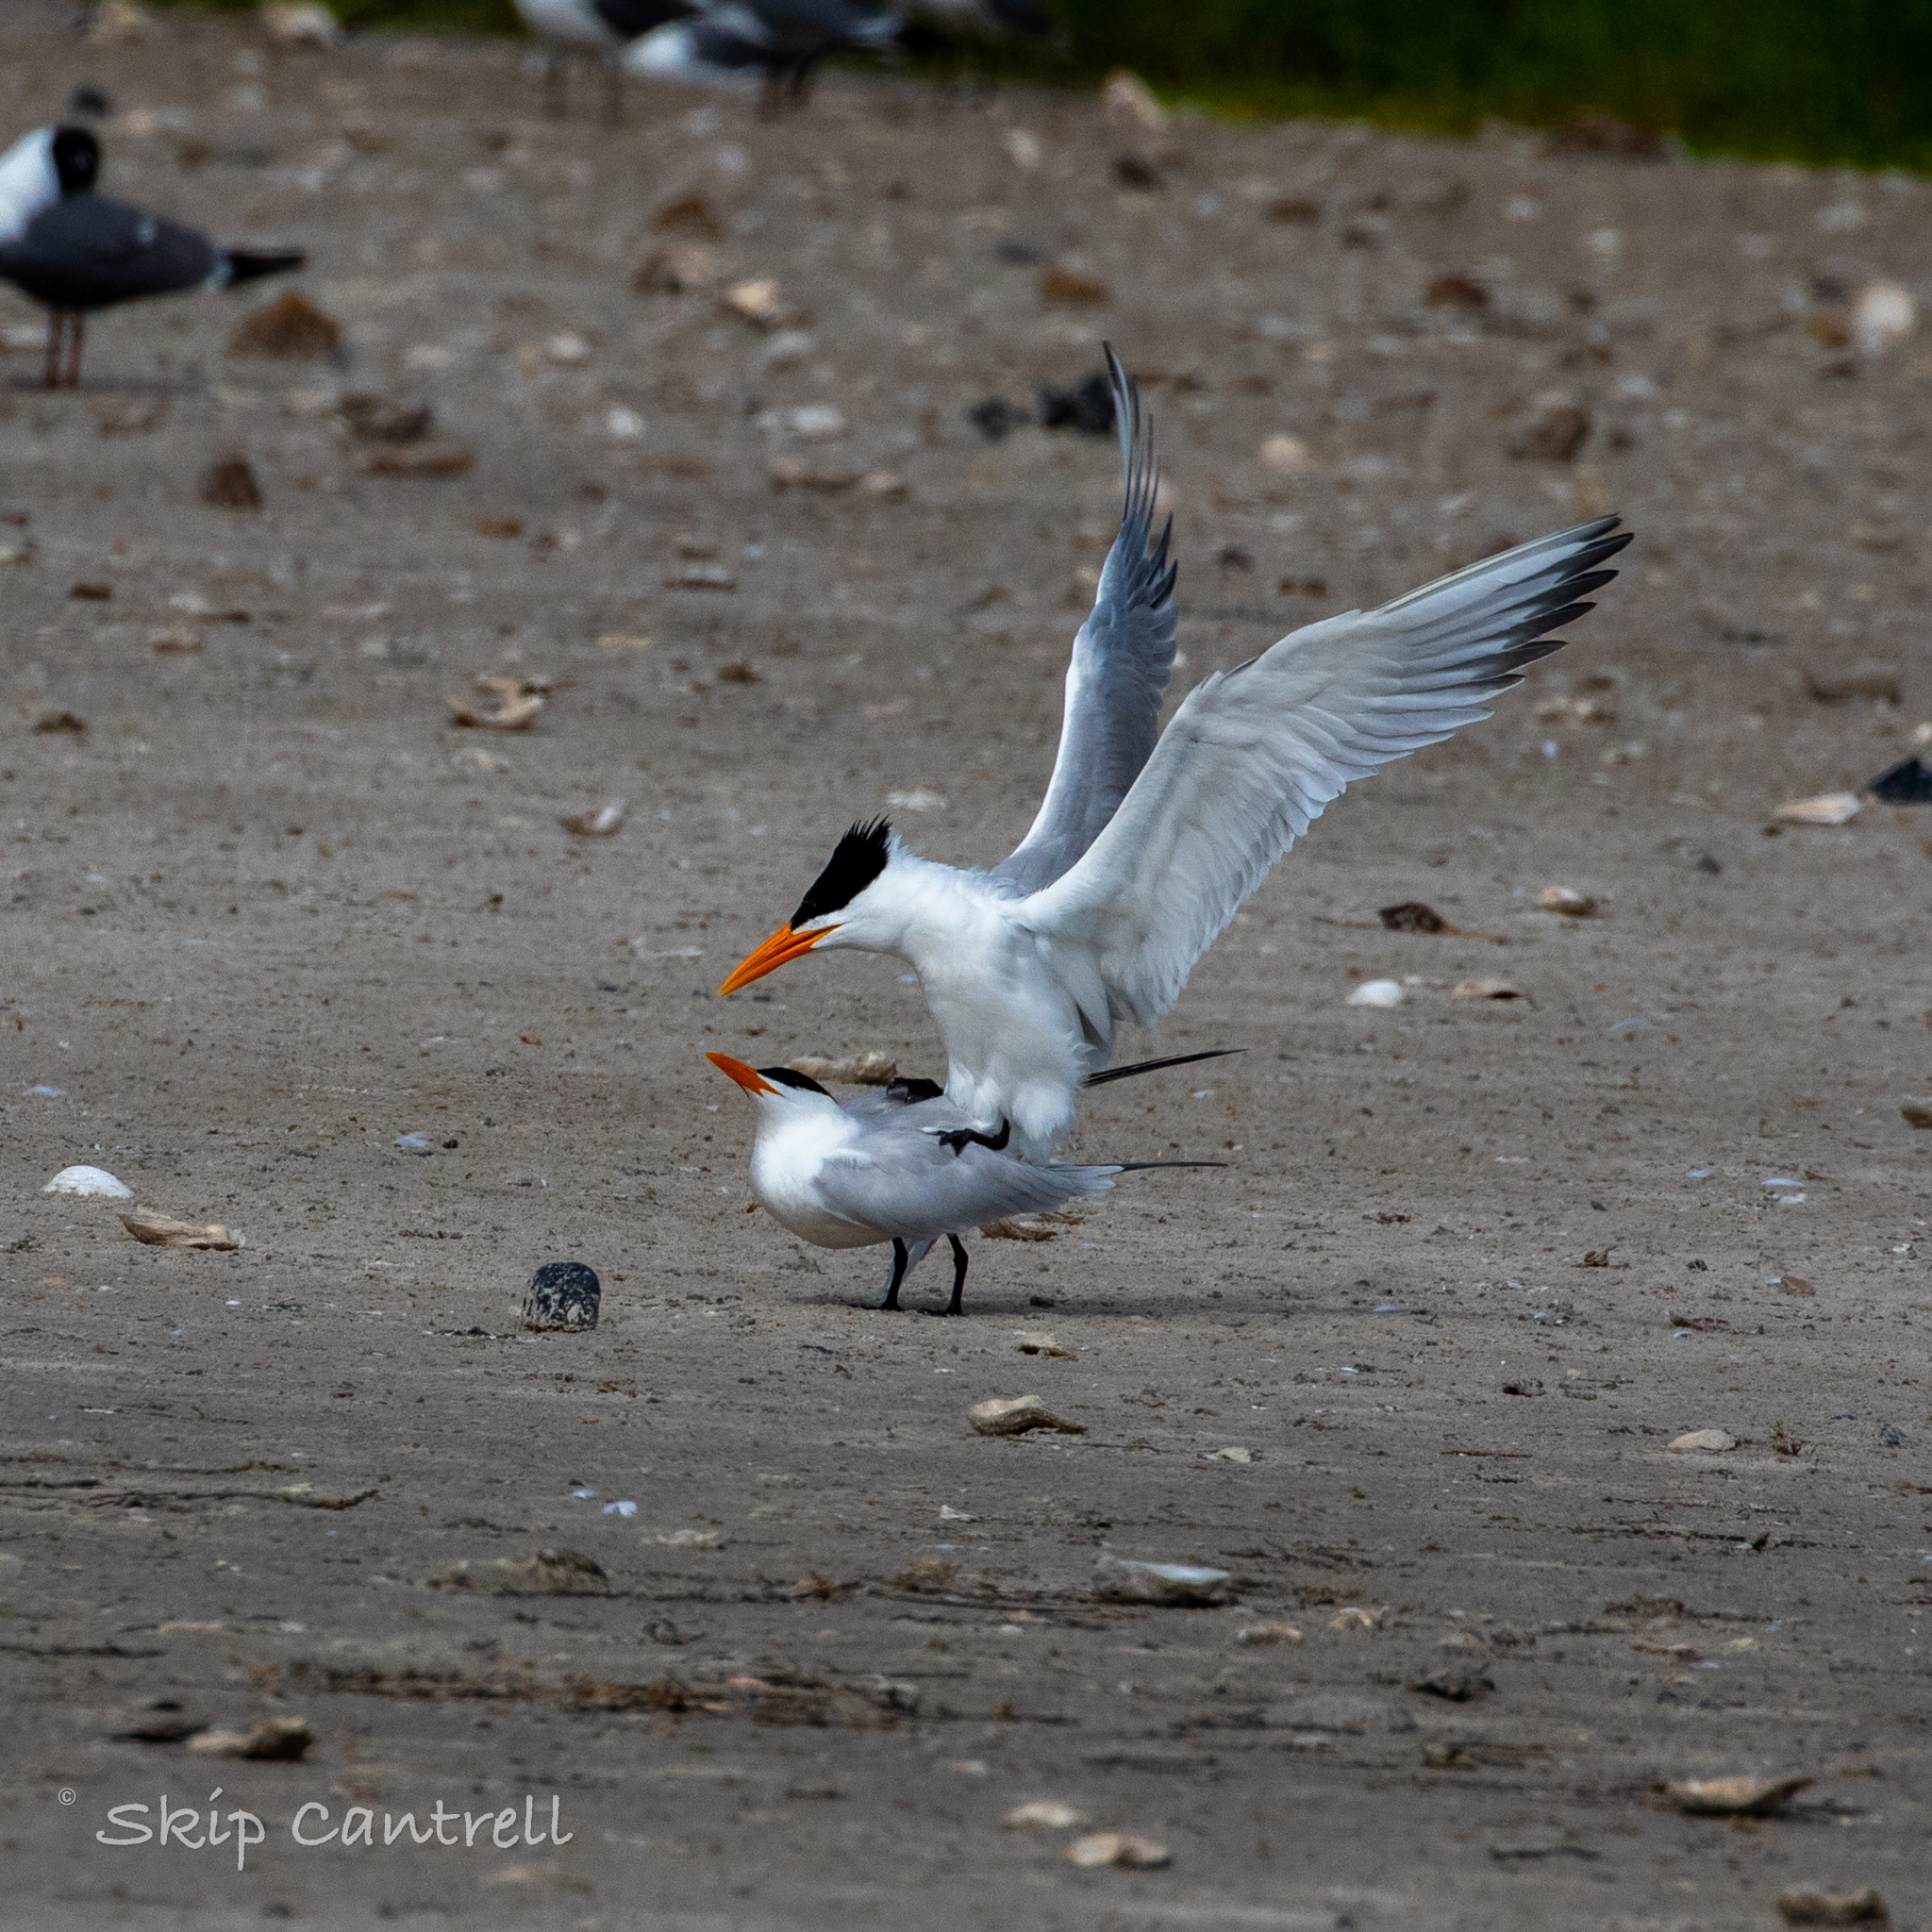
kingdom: Animalia
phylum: Chordata
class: Aves
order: Charadriiformes
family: Laridae
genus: Thalasseus
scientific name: Thalasseus maximus
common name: Royal tern
